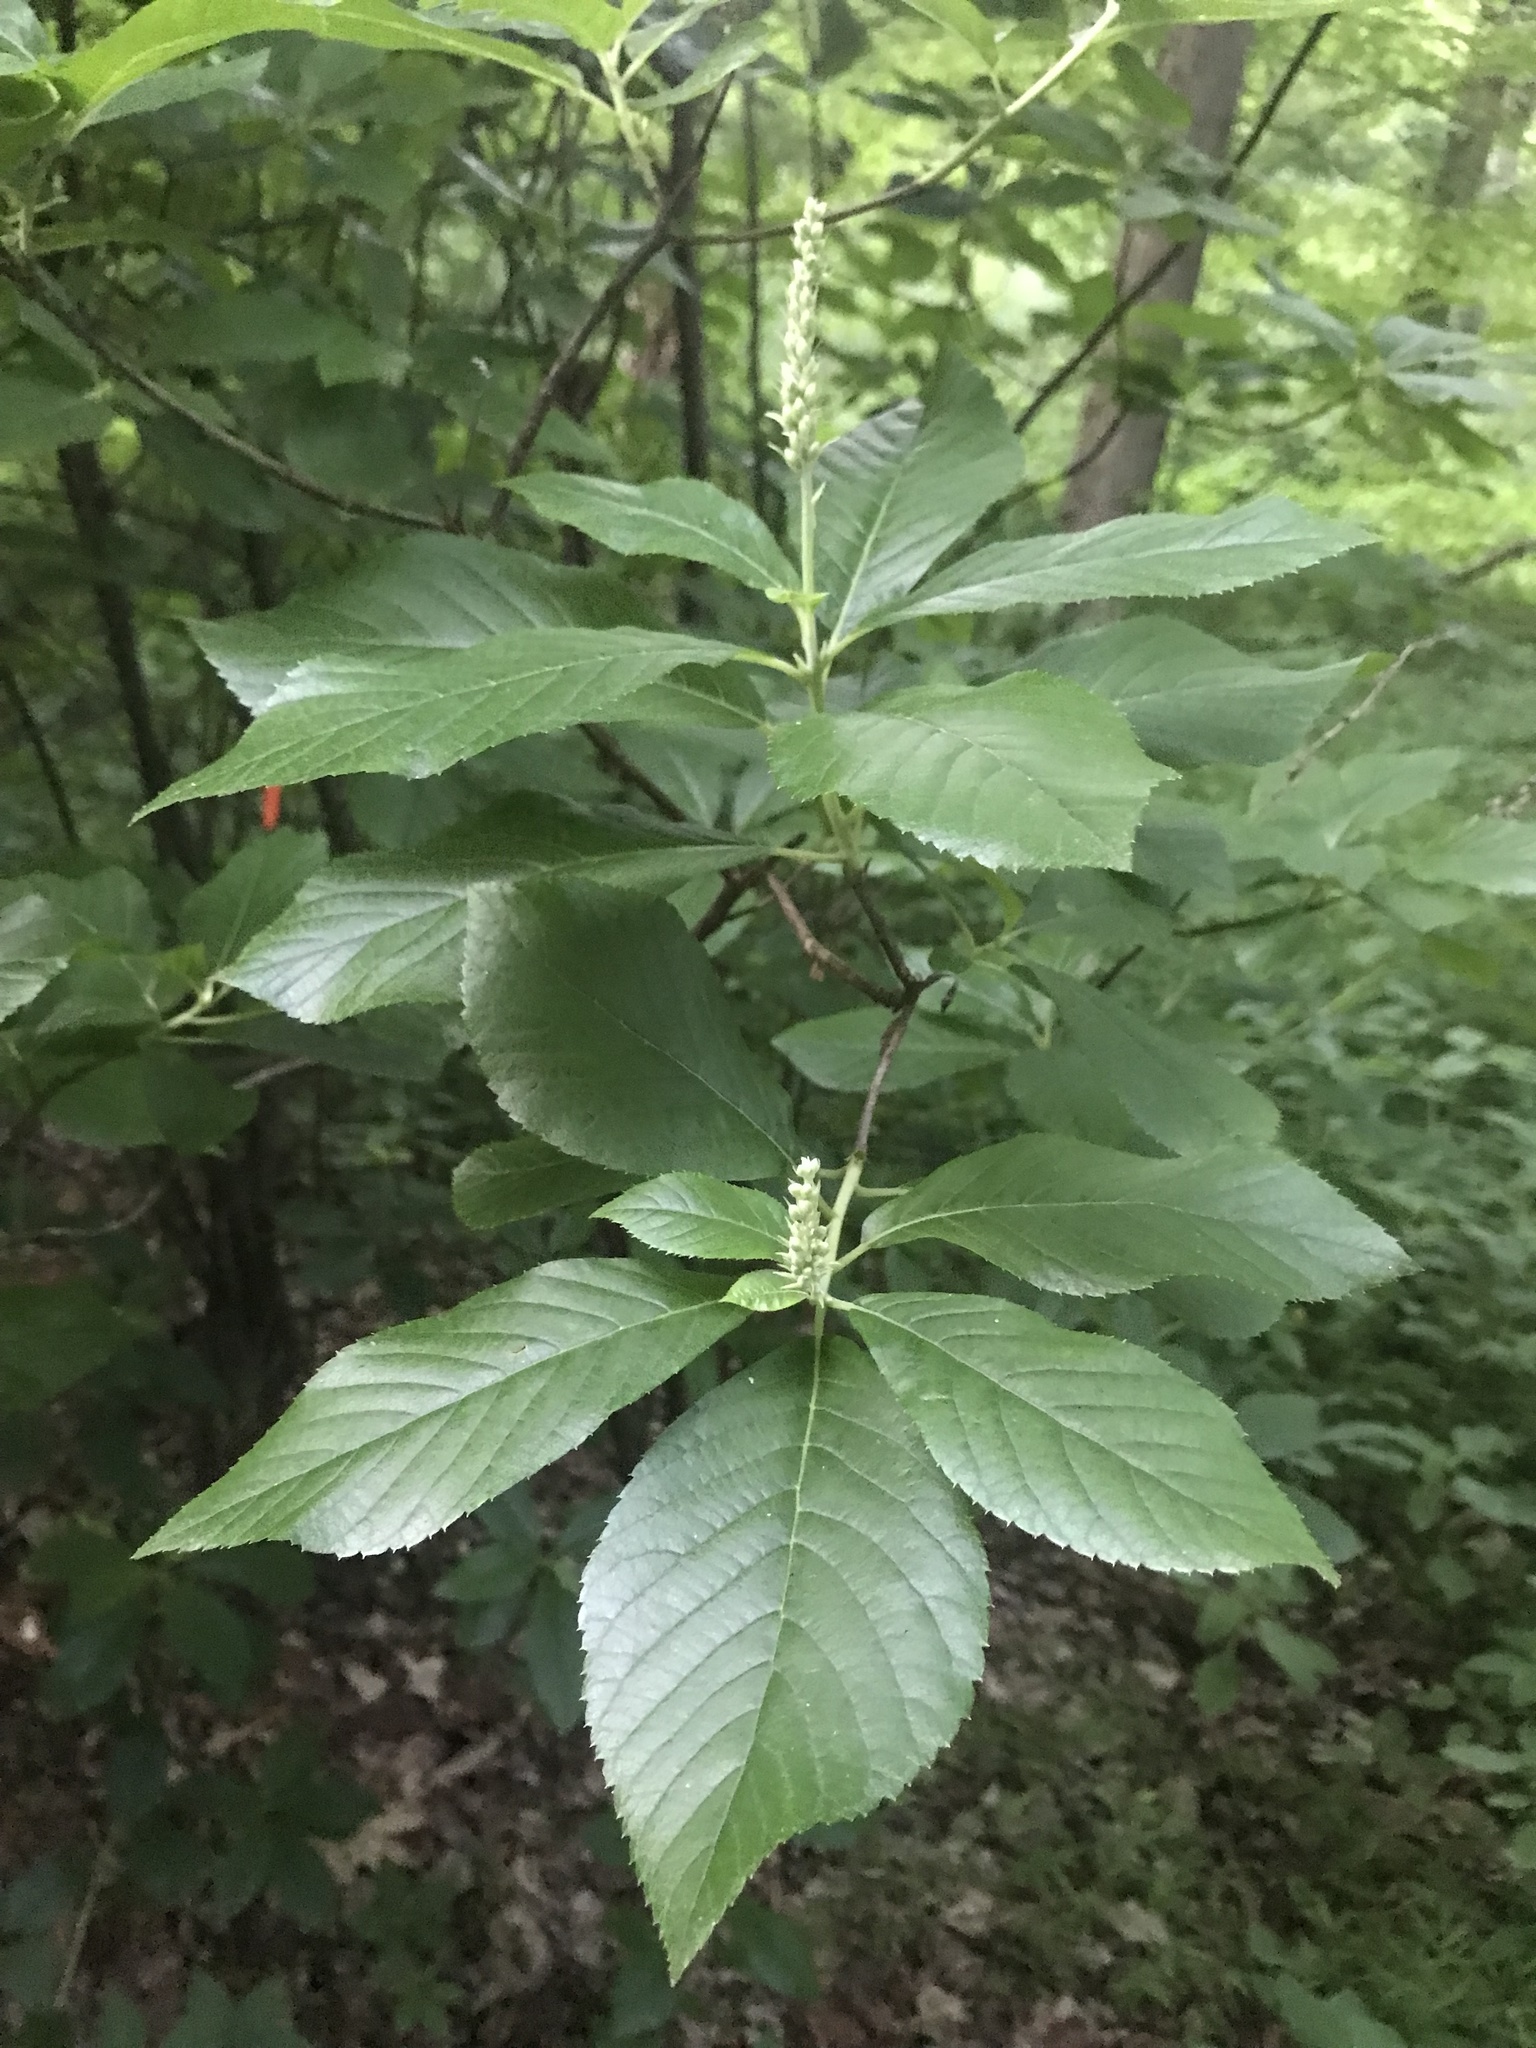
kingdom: Plantae
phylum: Tracheophyta
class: Magnoliopsida
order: Ericales
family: Clethraceae
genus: Clethra
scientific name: Clethra alnifolia
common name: Sweet pepperbush
